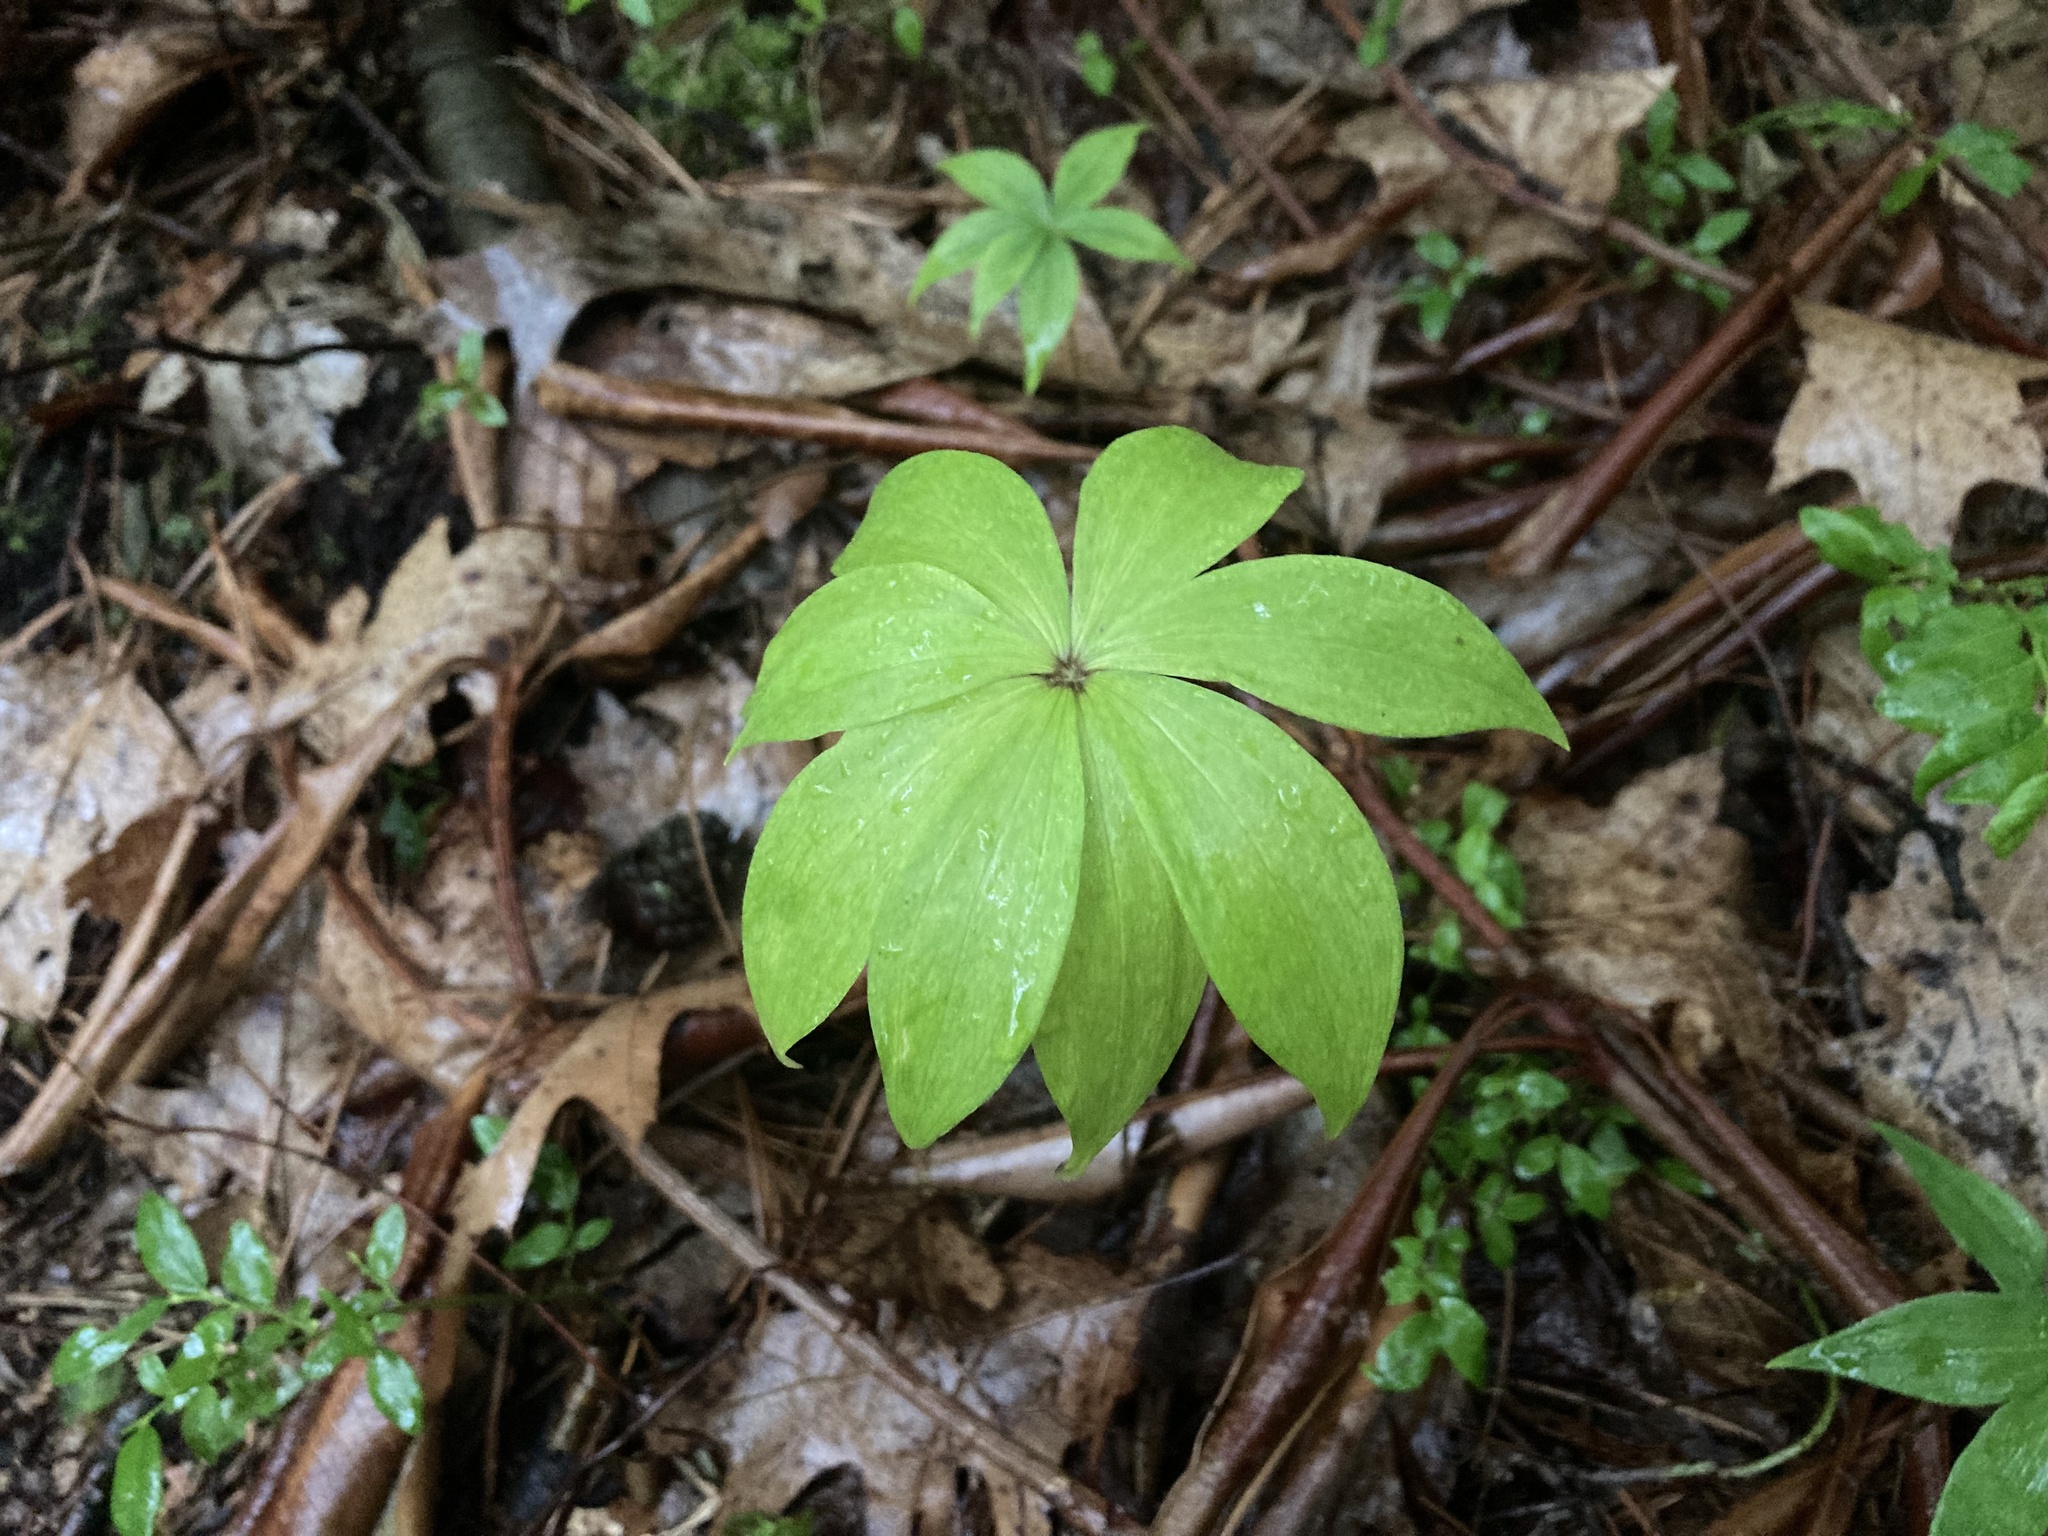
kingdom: Plantae
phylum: Tracheophyta
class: Liliopsida
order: Liliales
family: Liliaceae
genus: Medeola
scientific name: Medeola virginiana
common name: Indian cucumber-root
